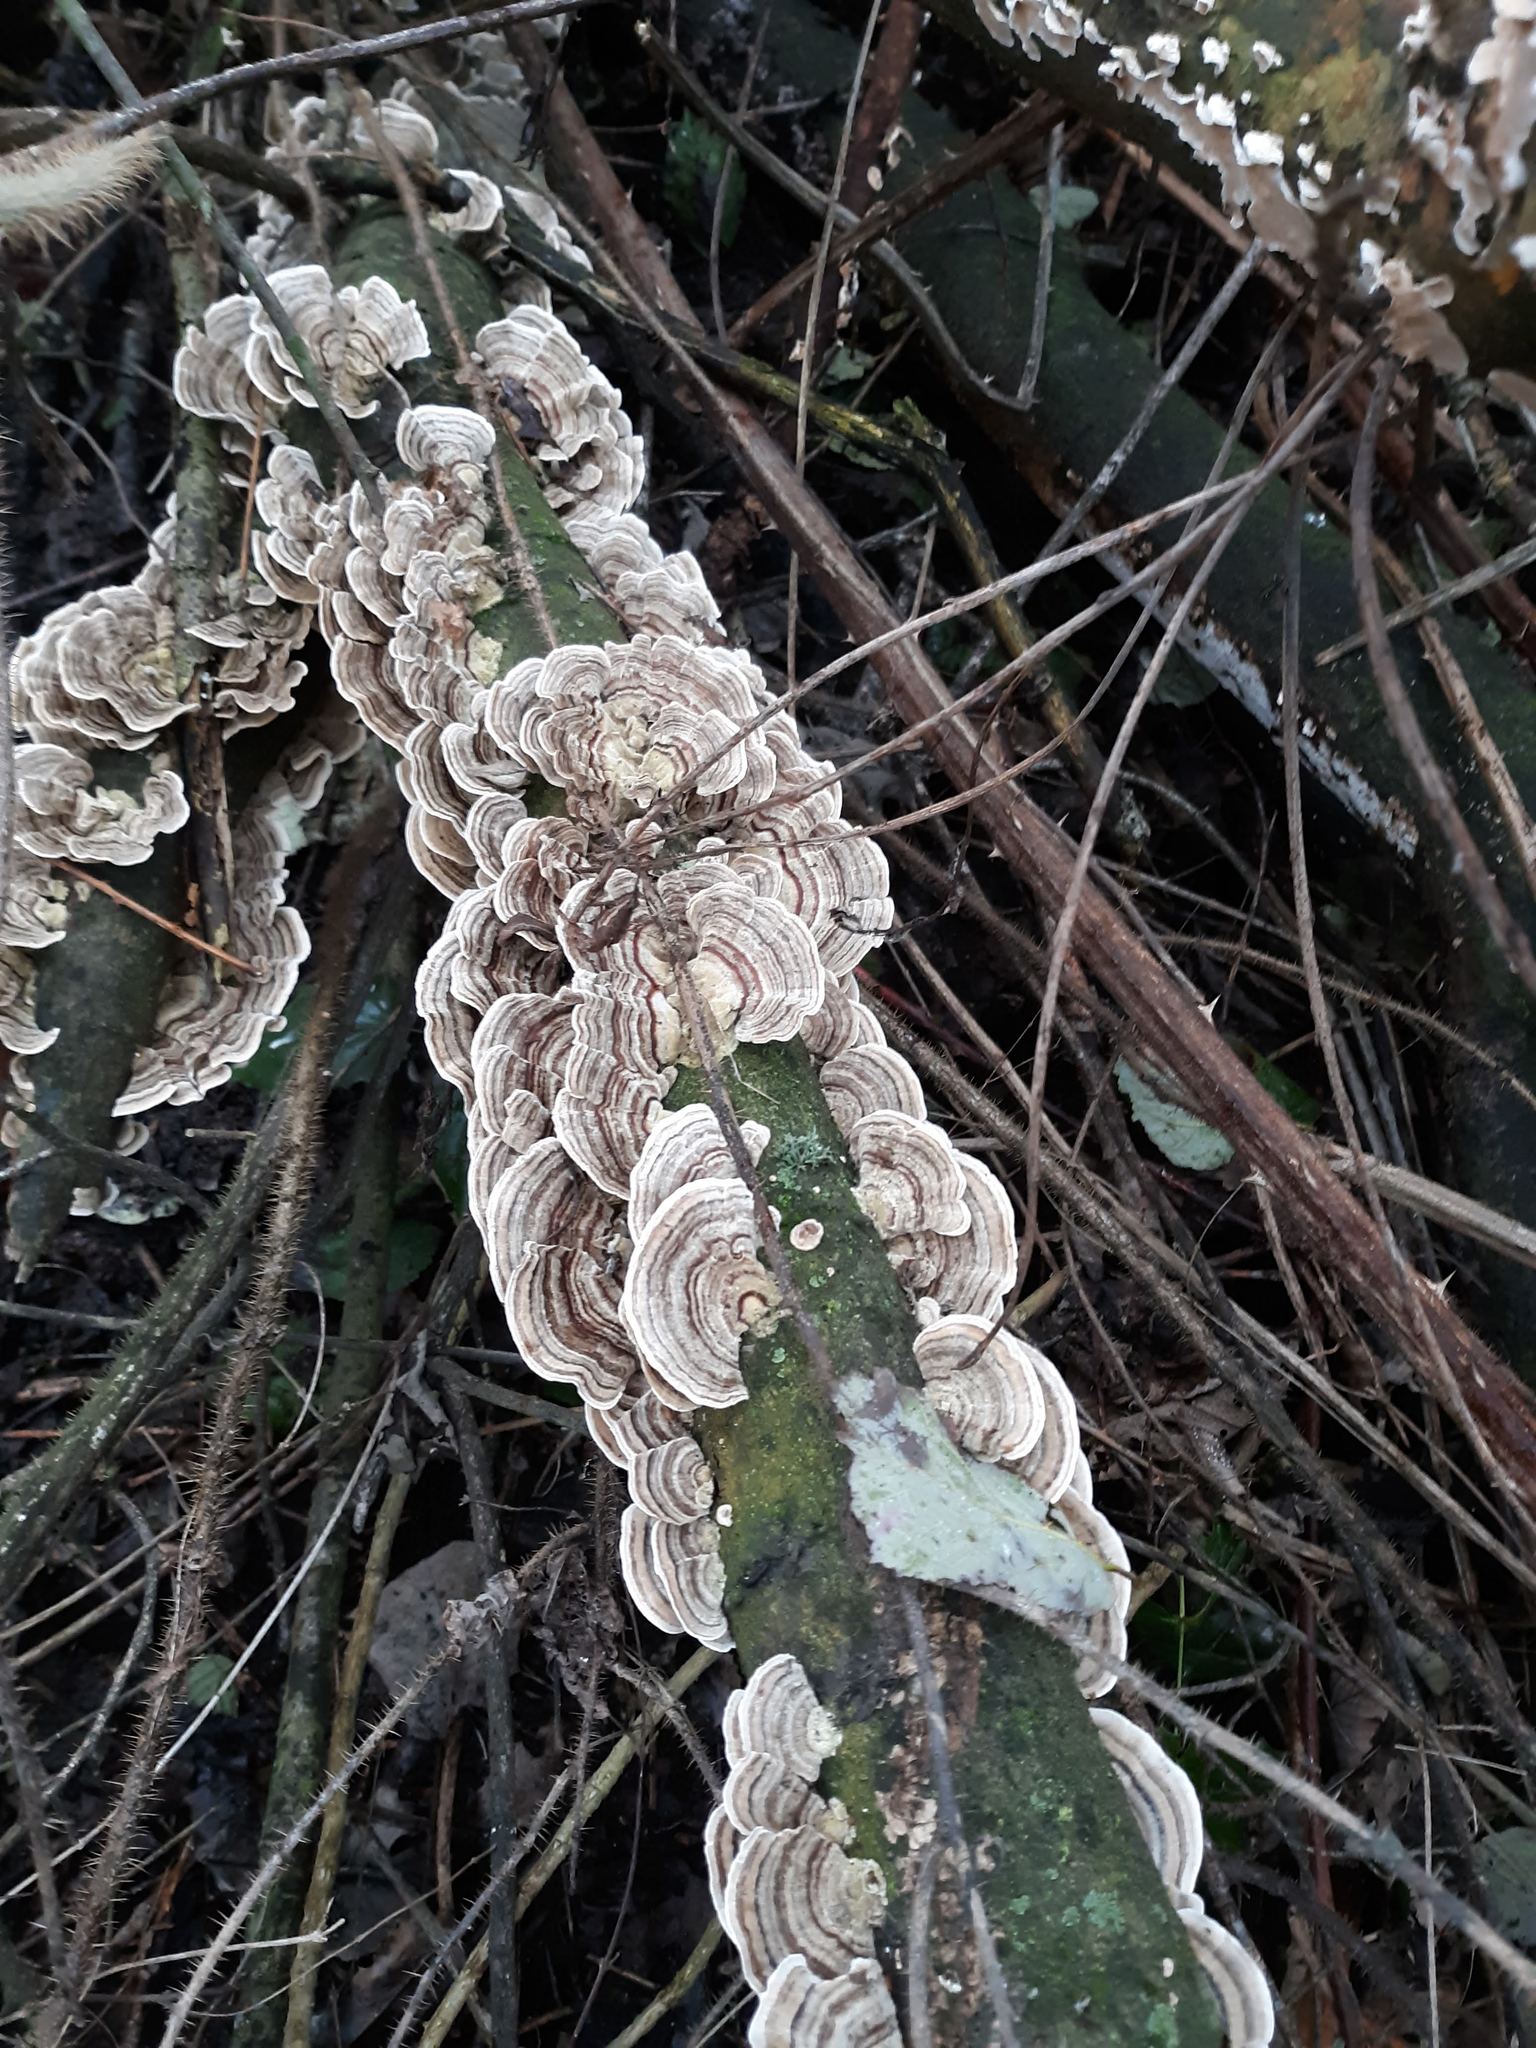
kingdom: Fungi
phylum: Basidiomycota
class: Agaricomycetes
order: Polyporales
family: Polyporaceae
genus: Trametes
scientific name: Trametes versicolor
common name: Turkeytail
